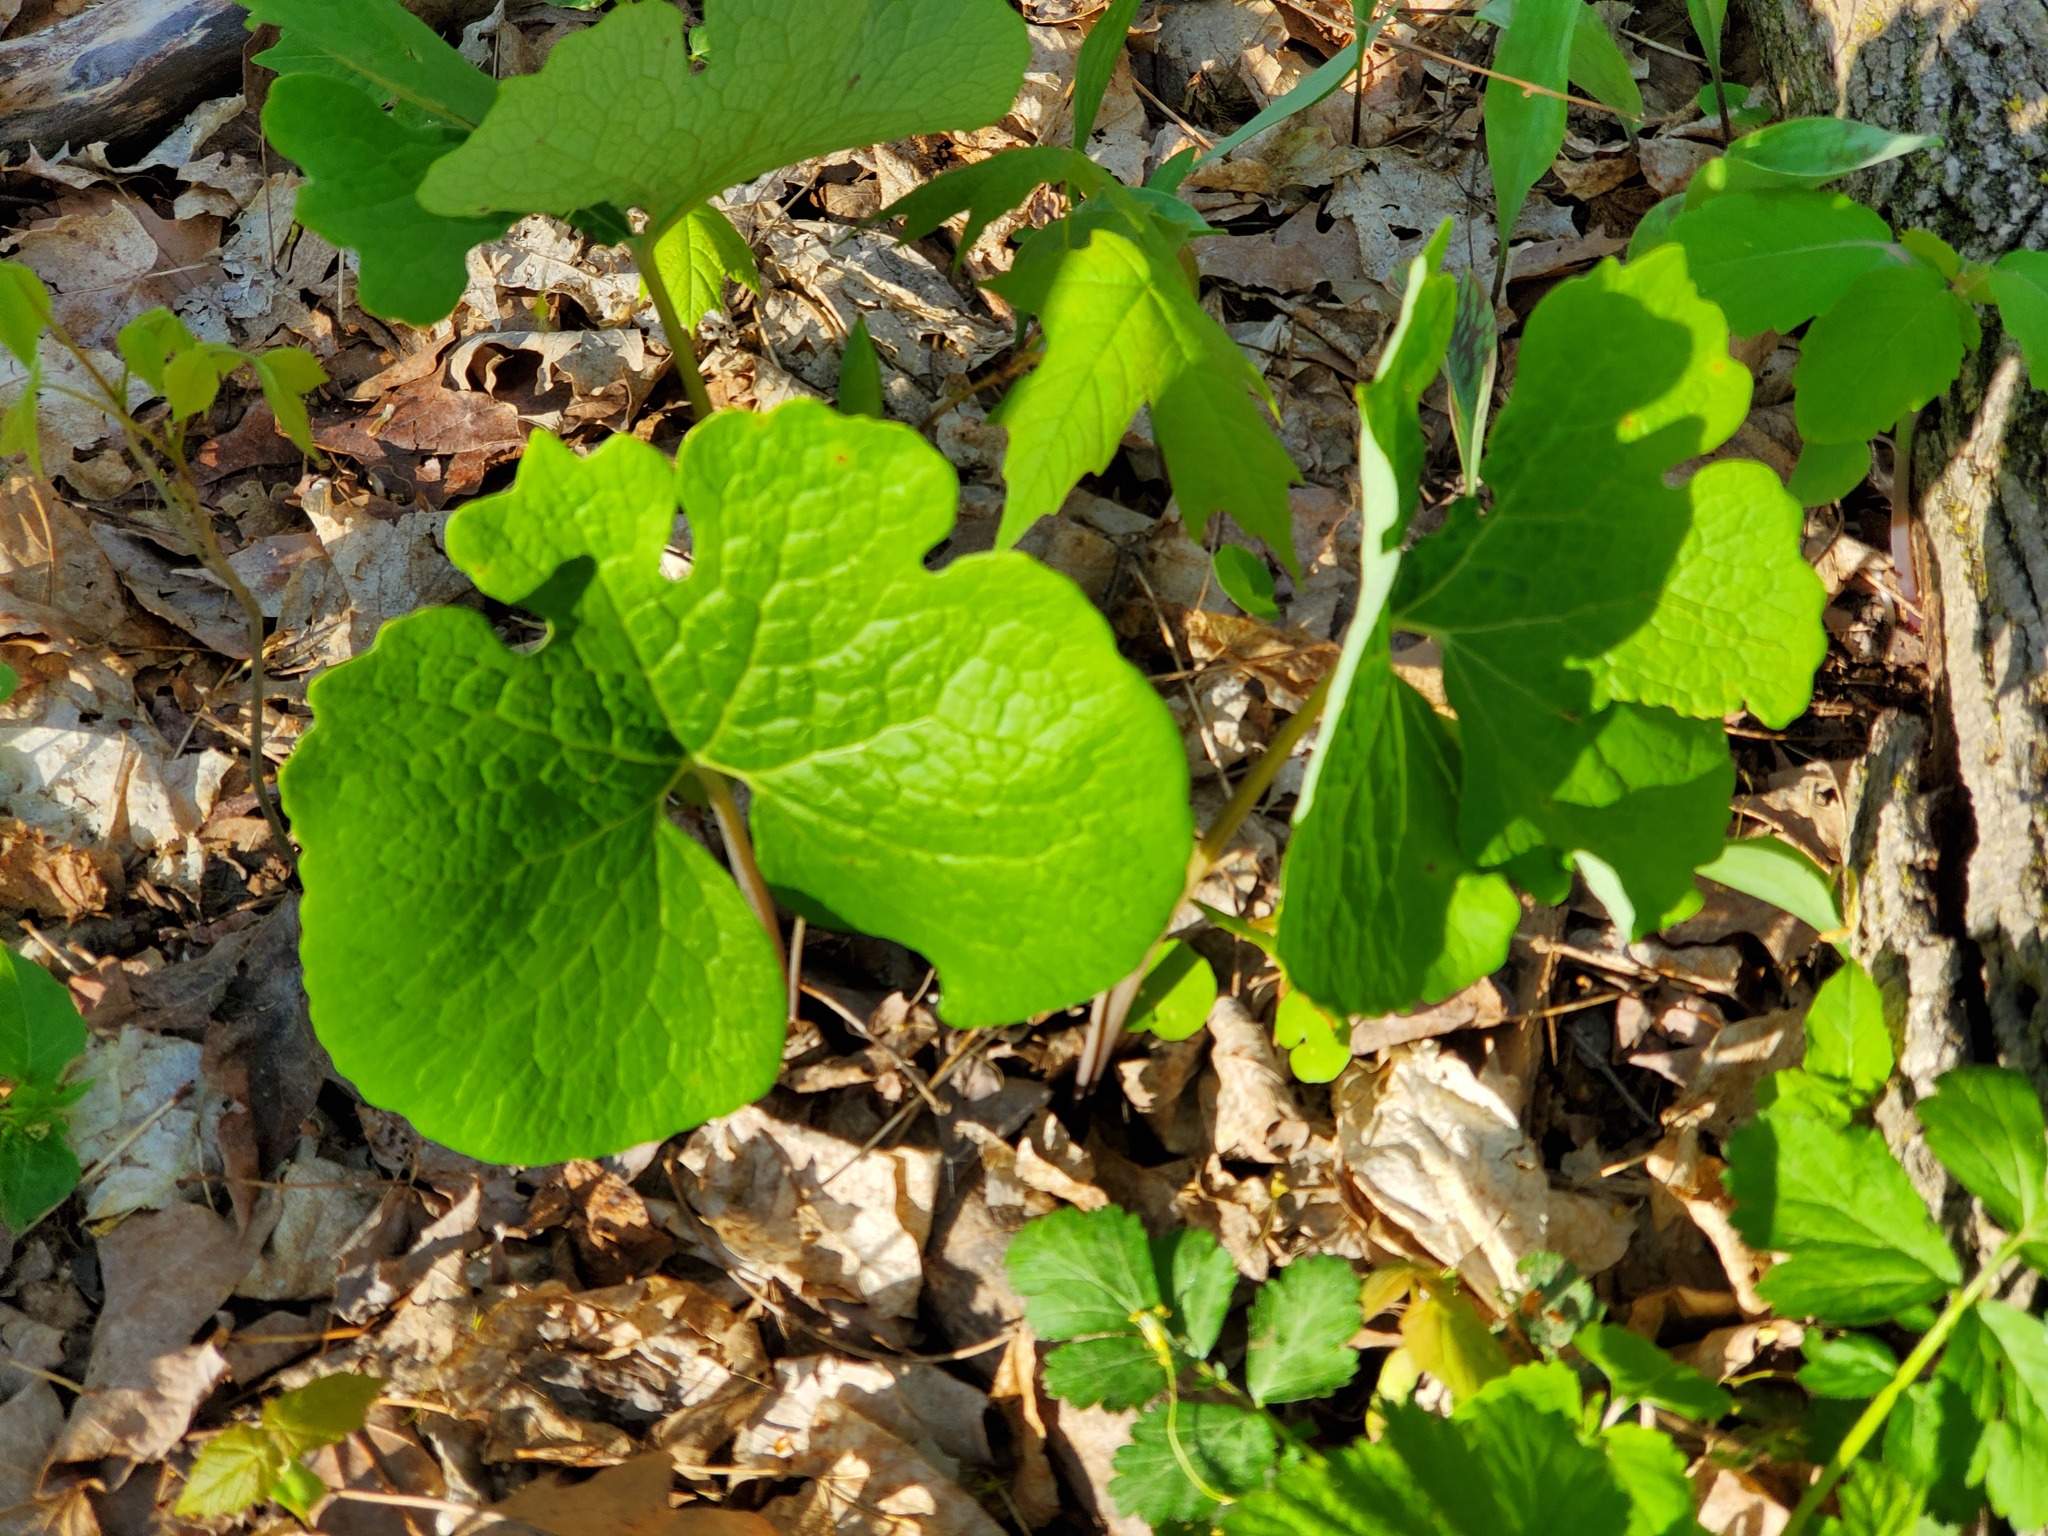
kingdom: Plantae
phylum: Tracheophyta
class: Magnoliopsida
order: Ranunculales
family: Papaveraceae
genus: Sanguinaria
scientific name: Sanguinaria canadensis
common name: Bloodroot
